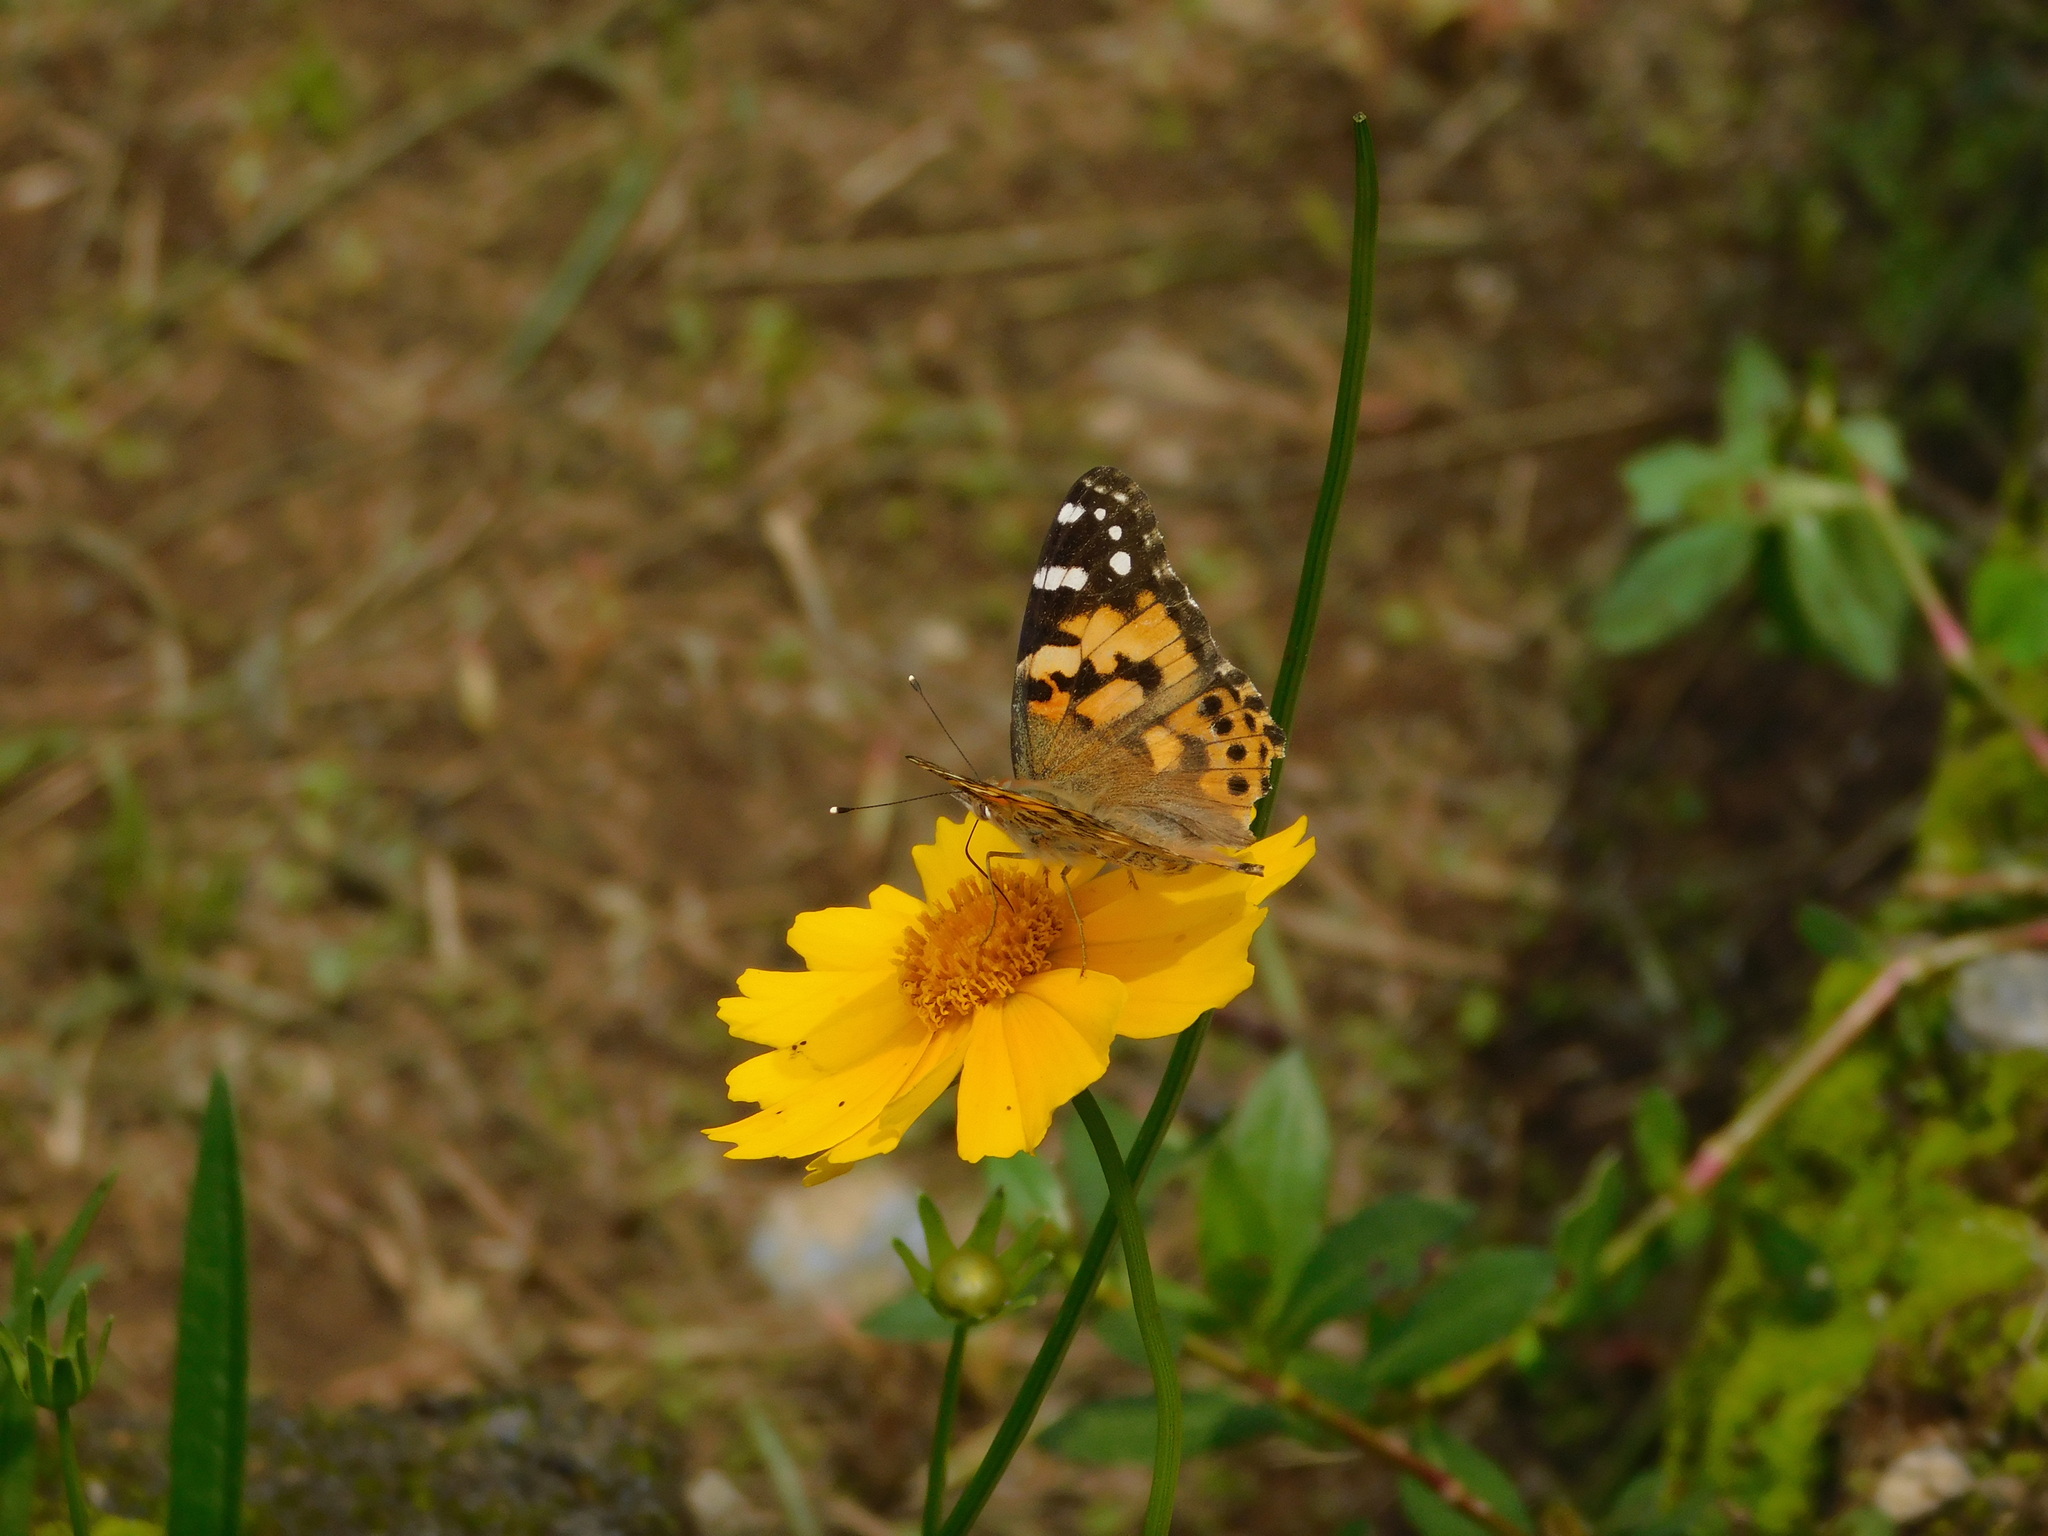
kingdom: Animalia
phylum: Arthropoda
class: Insecta
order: Lepidoptera
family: Nymphalidae
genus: Vanessa
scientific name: Vanessa cardui
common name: Painted lady
